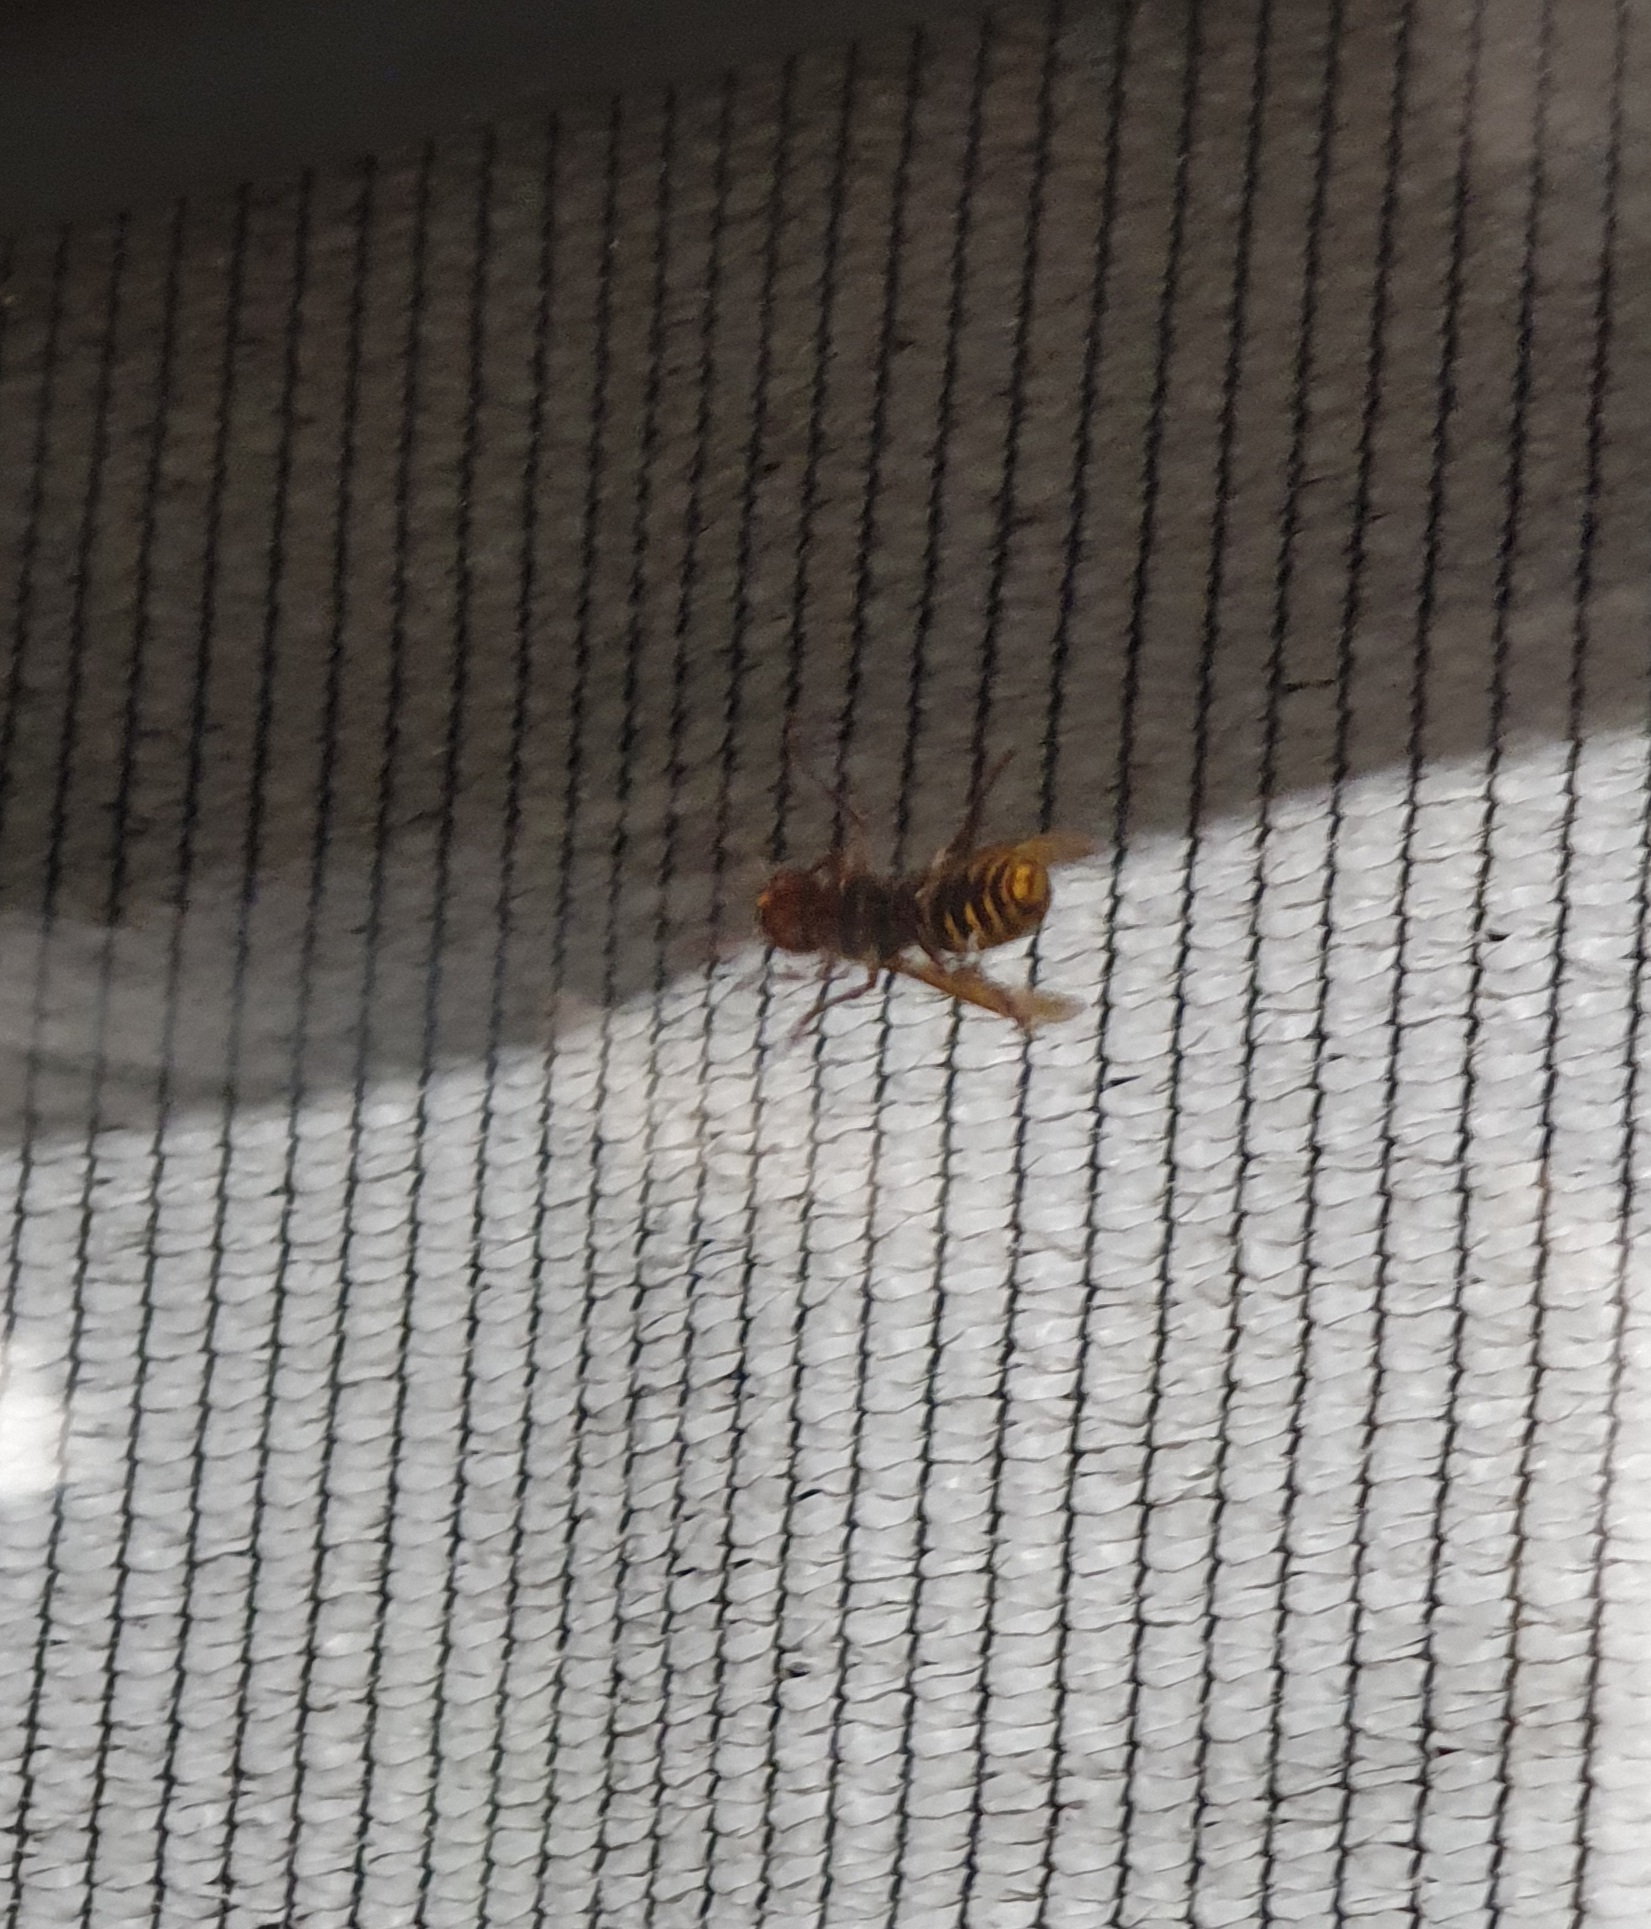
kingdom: Animalia
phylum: Arthropoda
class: Insecta
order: Hymenoptera
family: Vespidae
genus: Vespa
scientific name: Vespa crabro
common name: Hornet
